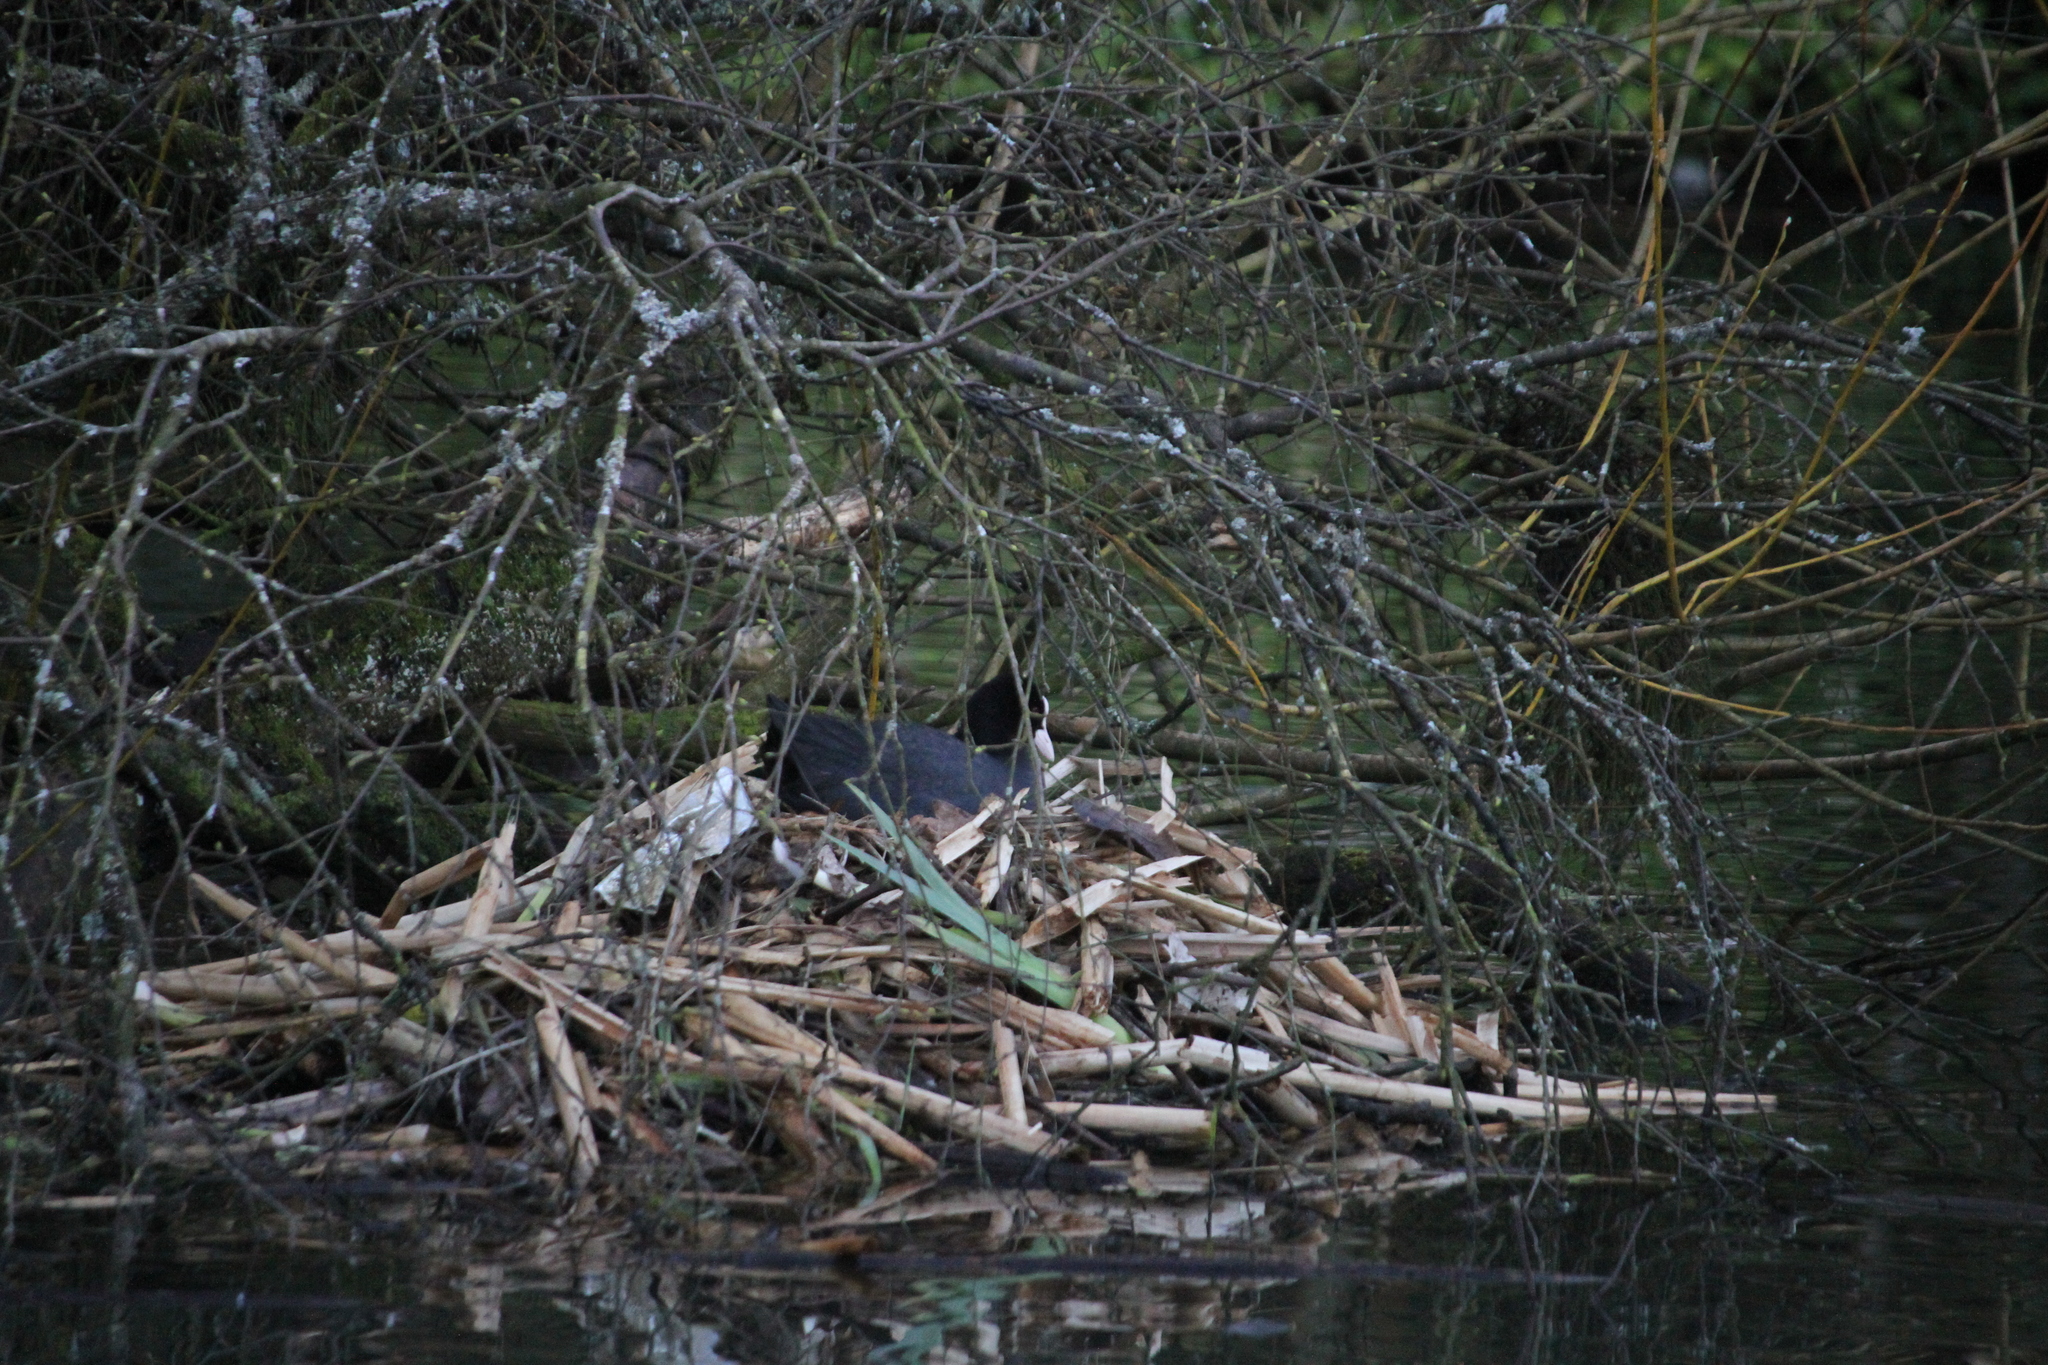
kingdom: Animalia
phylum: Chordata
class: Aves
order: Gruiformes
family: Rallidae
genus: Fulica
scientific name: Fulica atra
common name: Eurasian coot
